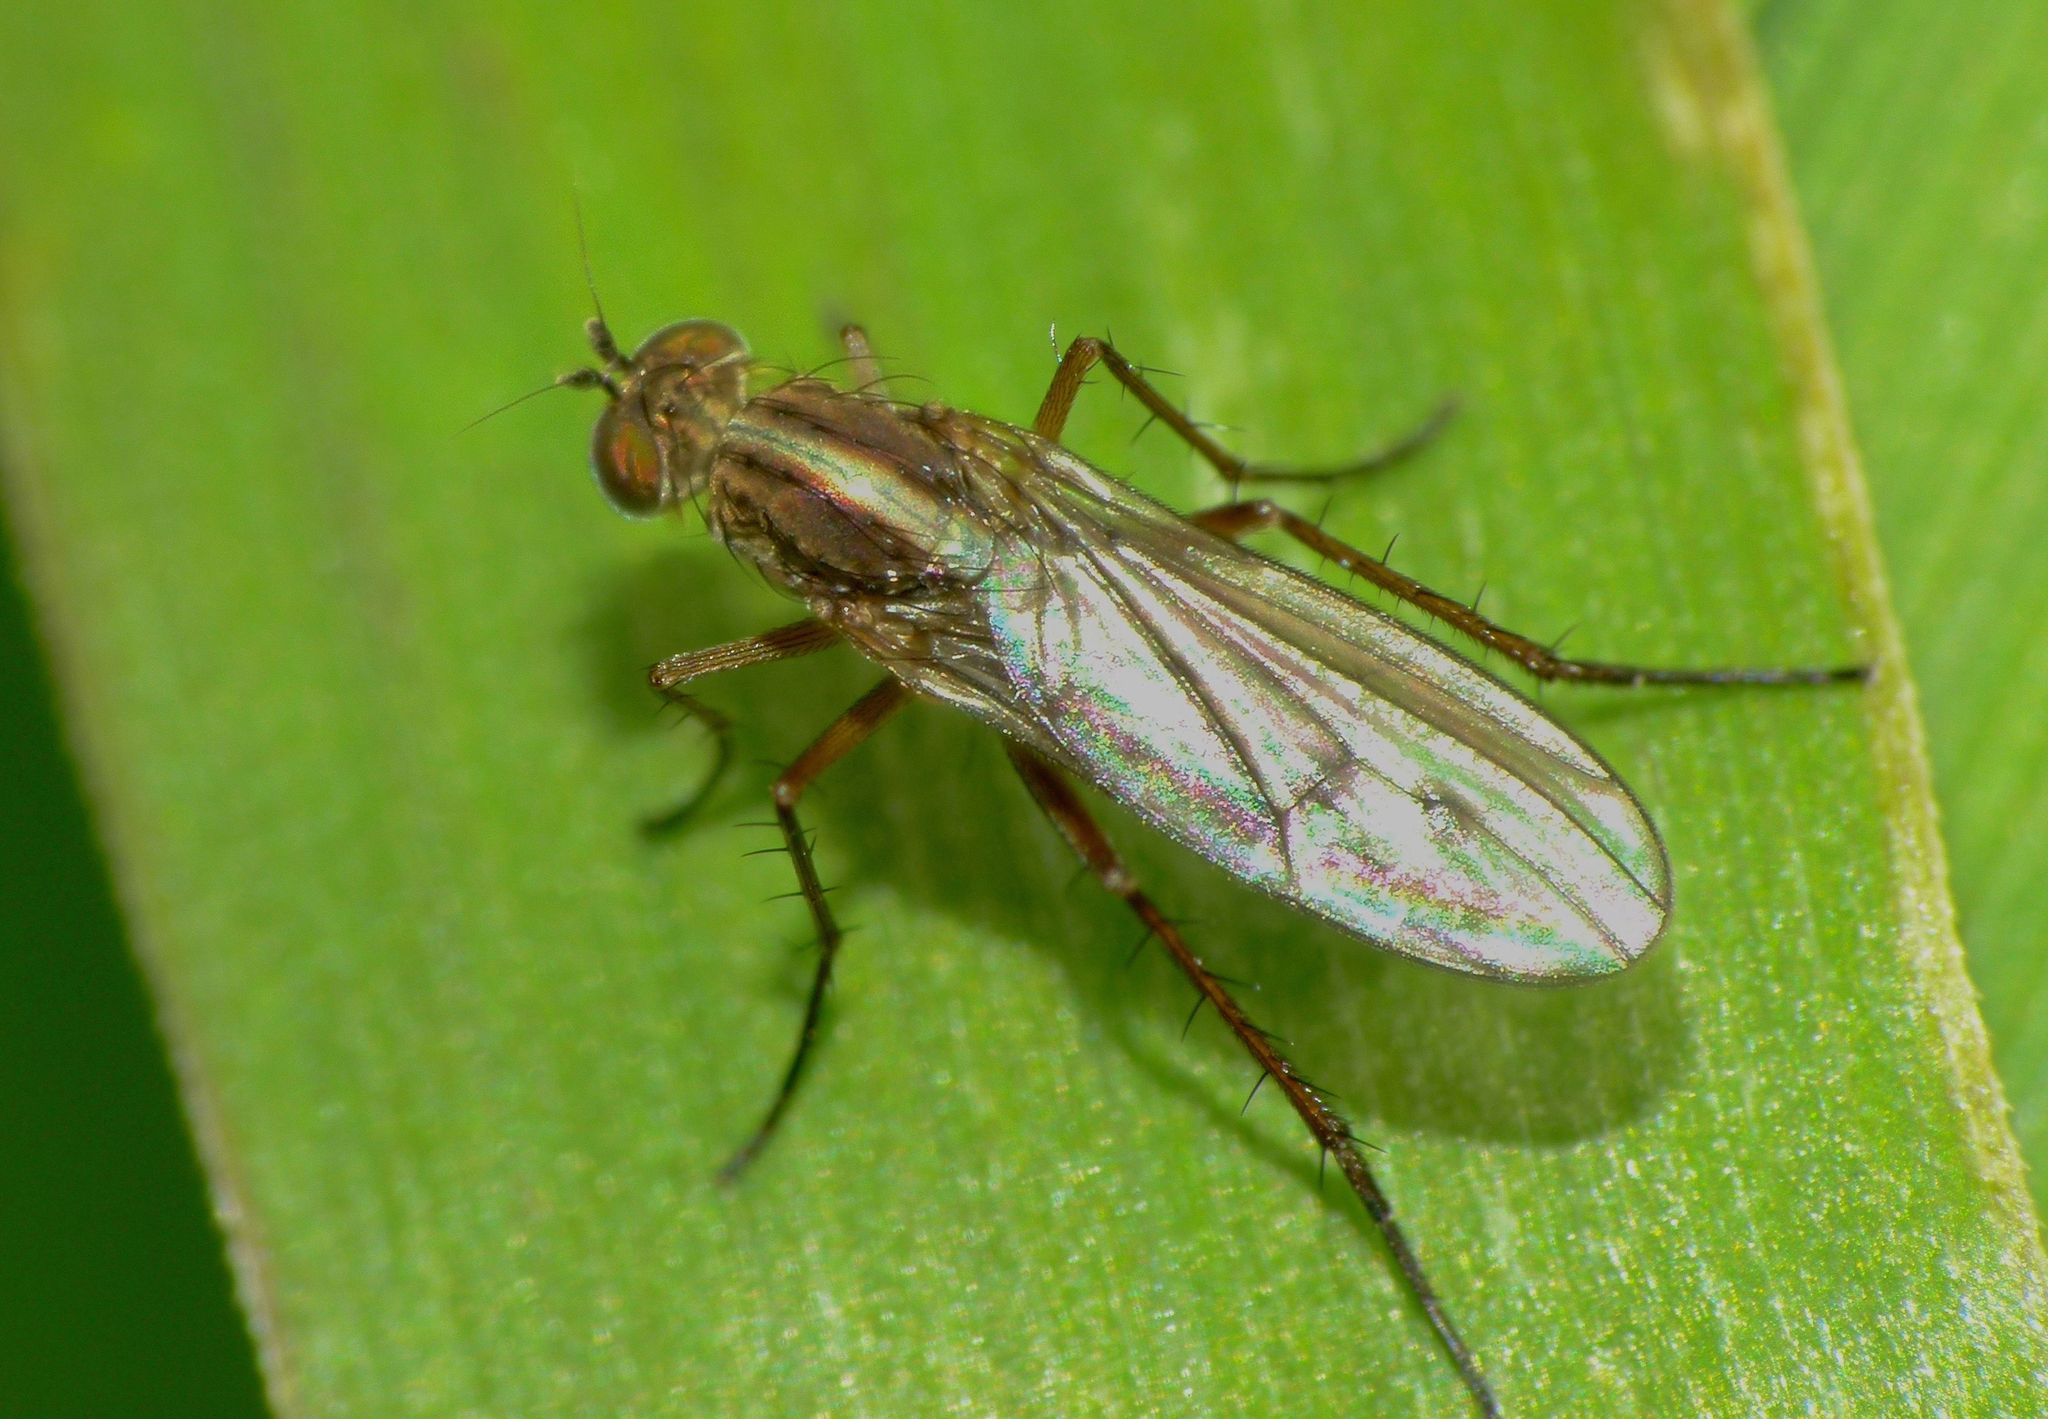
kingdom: Animalia
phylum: Arthropoda
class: Insecta
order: Diptera
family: Dolichopodidae
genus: Tetrachaetus
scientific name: Tetrachaetus bipunctatus
